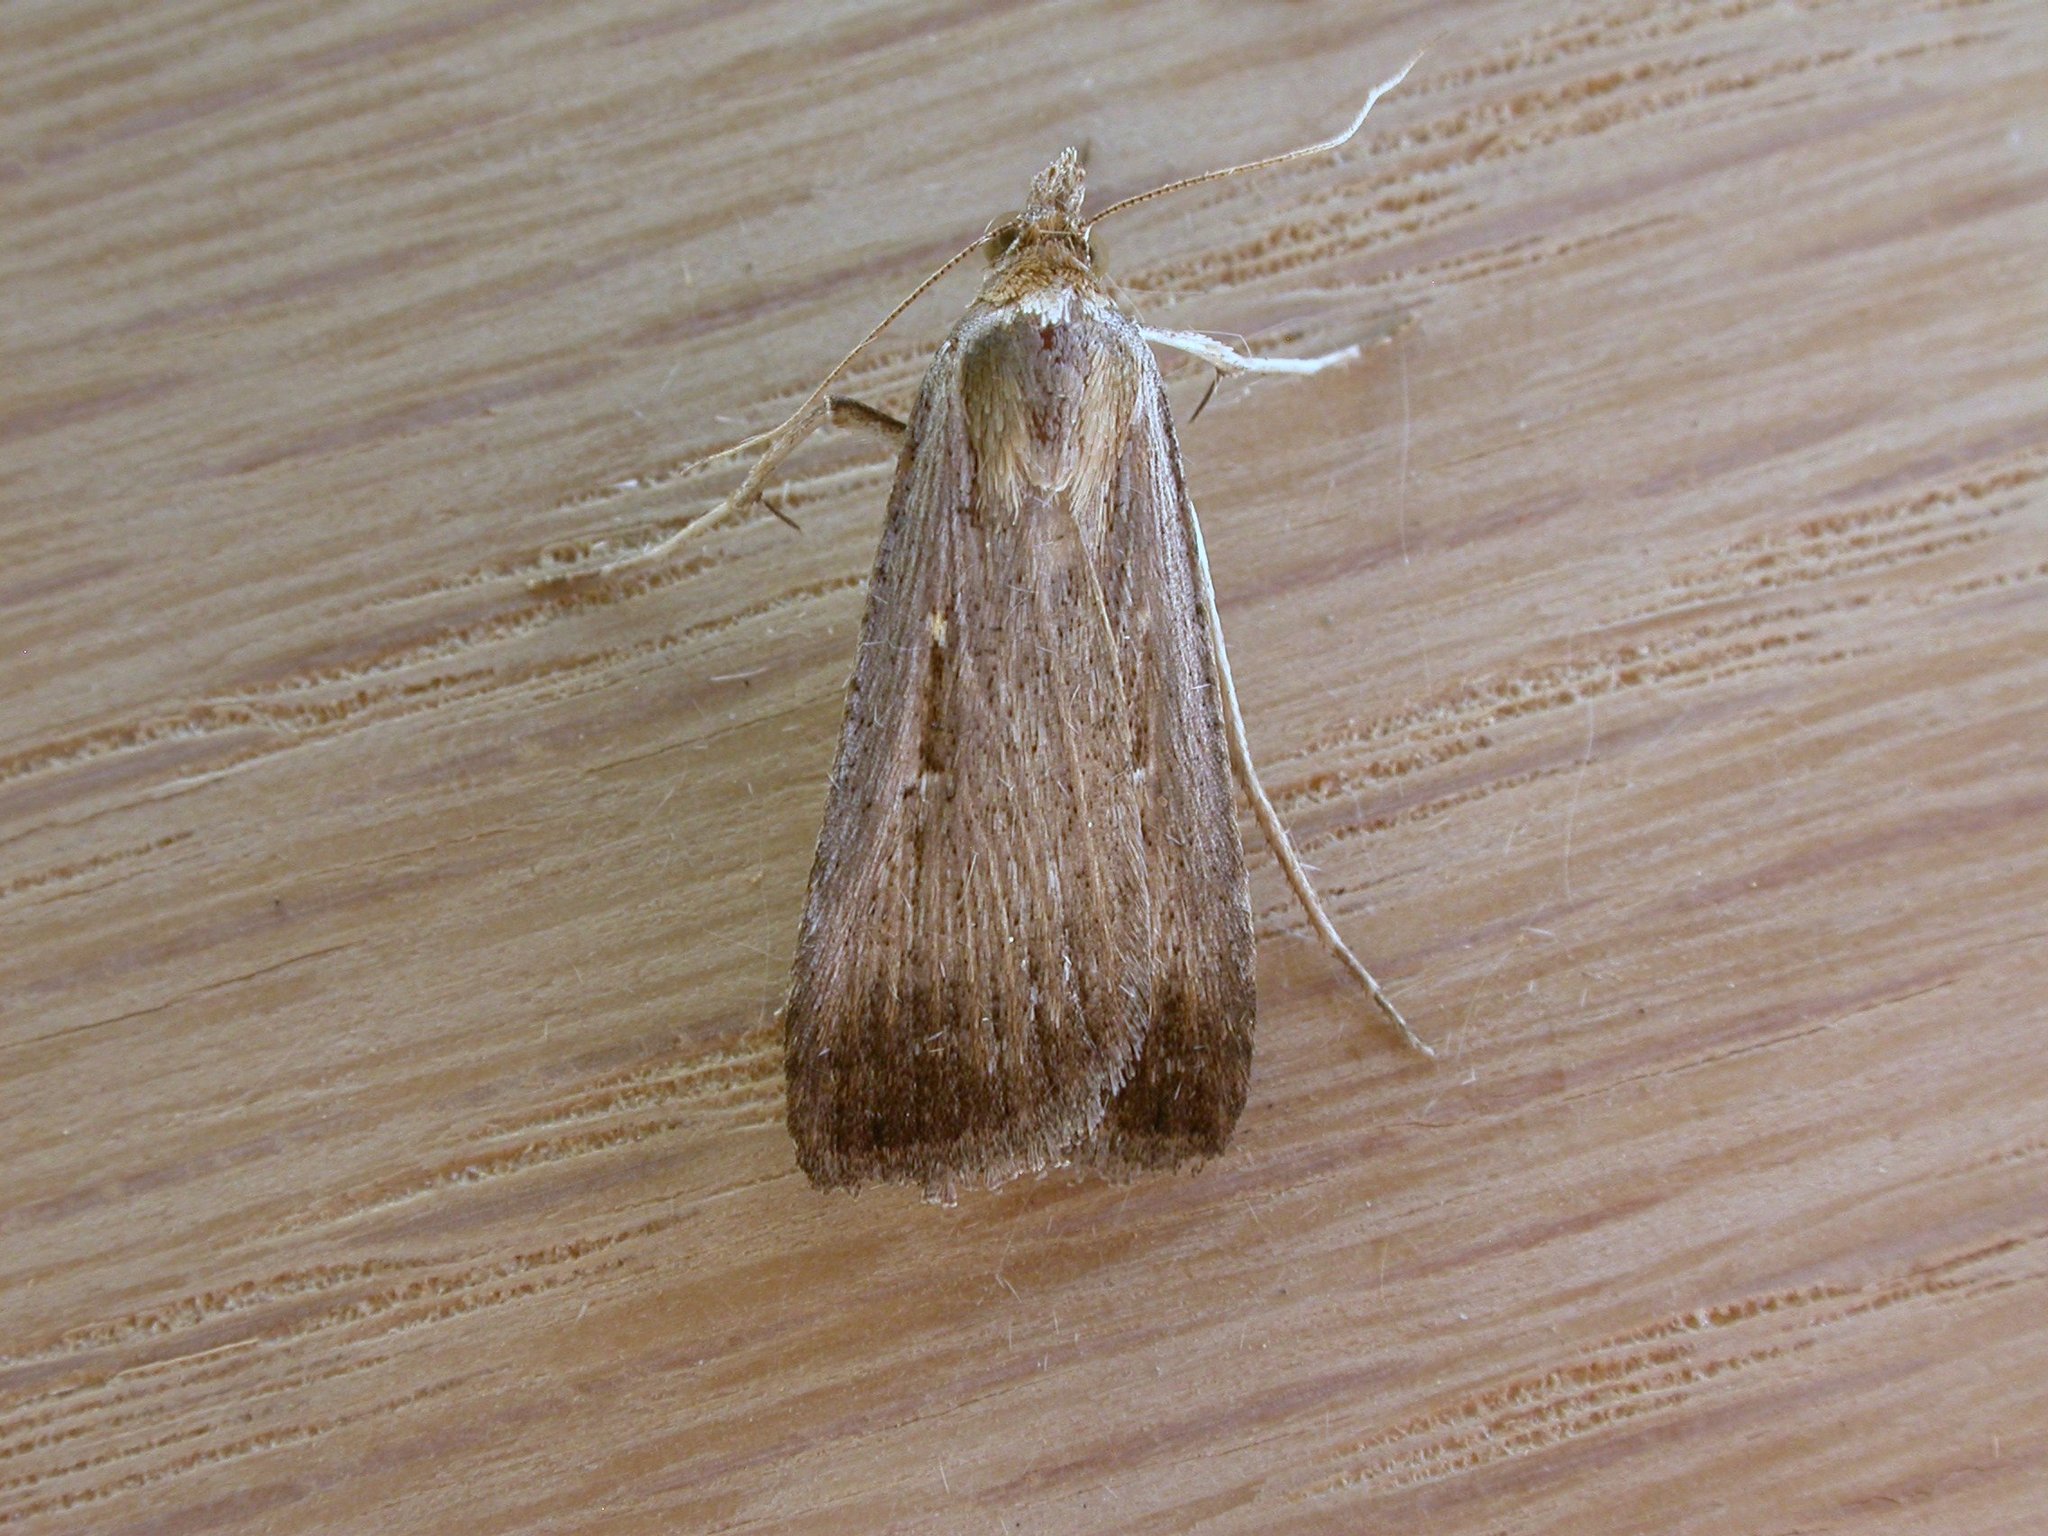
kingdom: Animalia
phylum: Arthropoda
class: Insecta
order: Lepidoptera
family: Noctuidae
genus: Tathorhynchus
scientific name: Tathorhynchus fallax
